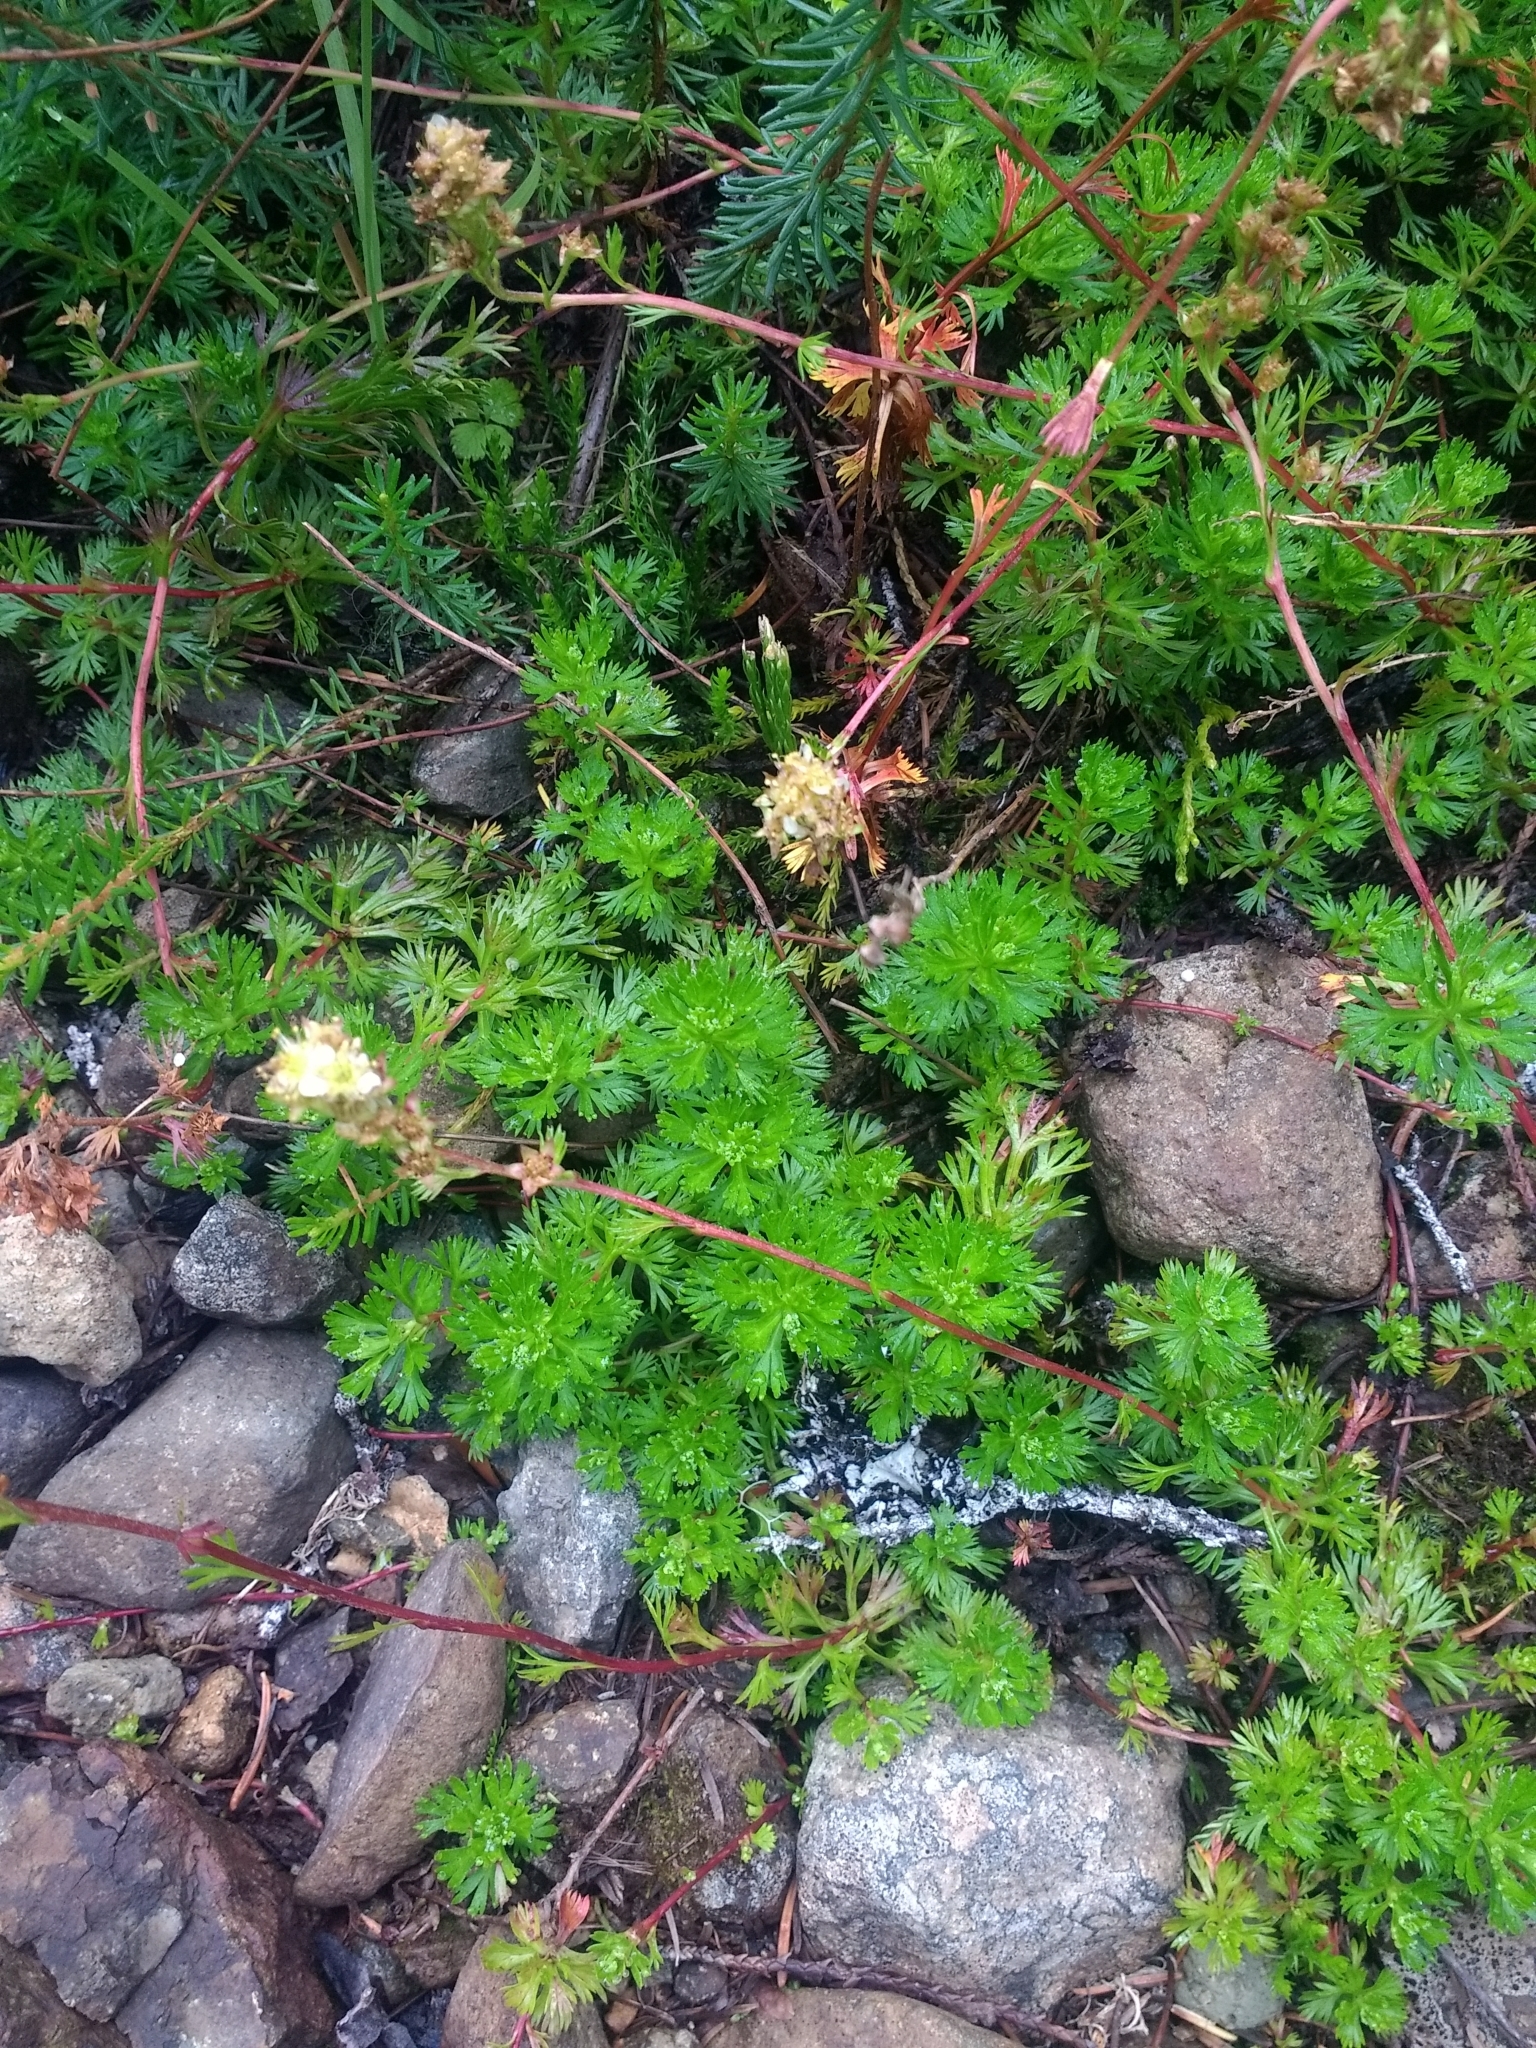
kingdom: Plantae
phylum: Tracheophyta
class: Magnoliopsida
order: Rosales
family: Rosaceae
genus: Luetkea
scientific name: Luetkea pectinata
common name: Partridgefoot
